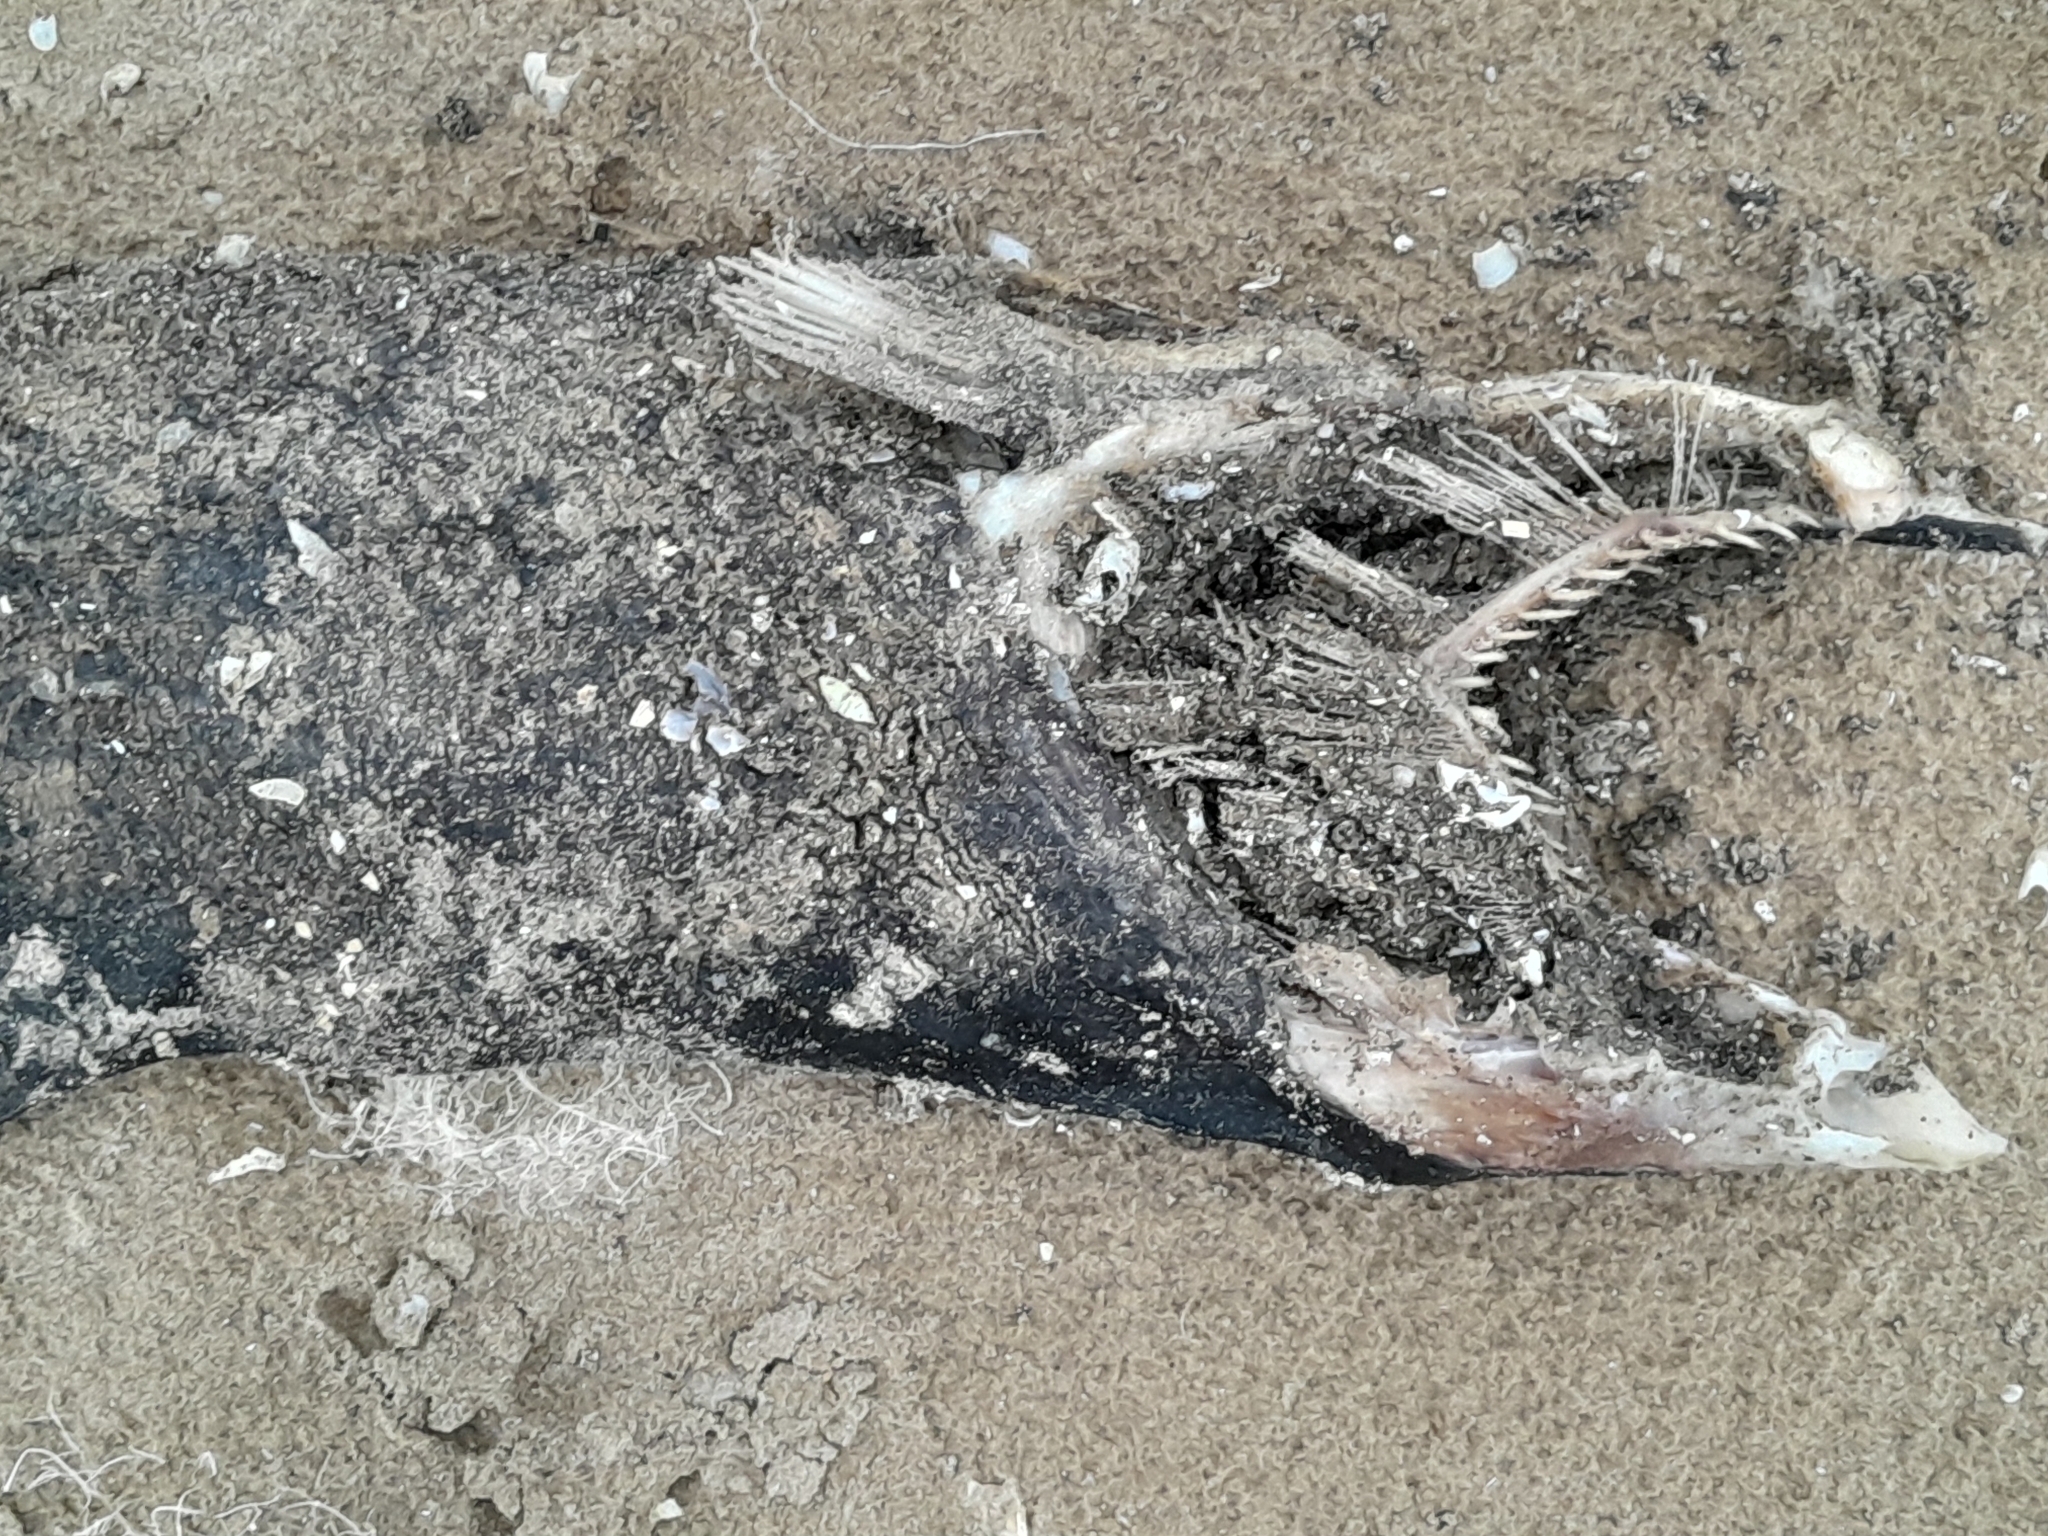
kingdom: Animalia
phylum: Chordata
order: Salmoniformes
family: Salmonidae
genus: Oncorhynchus
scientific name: Oncorhynchus tshawytscha
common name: Chinook salmon
